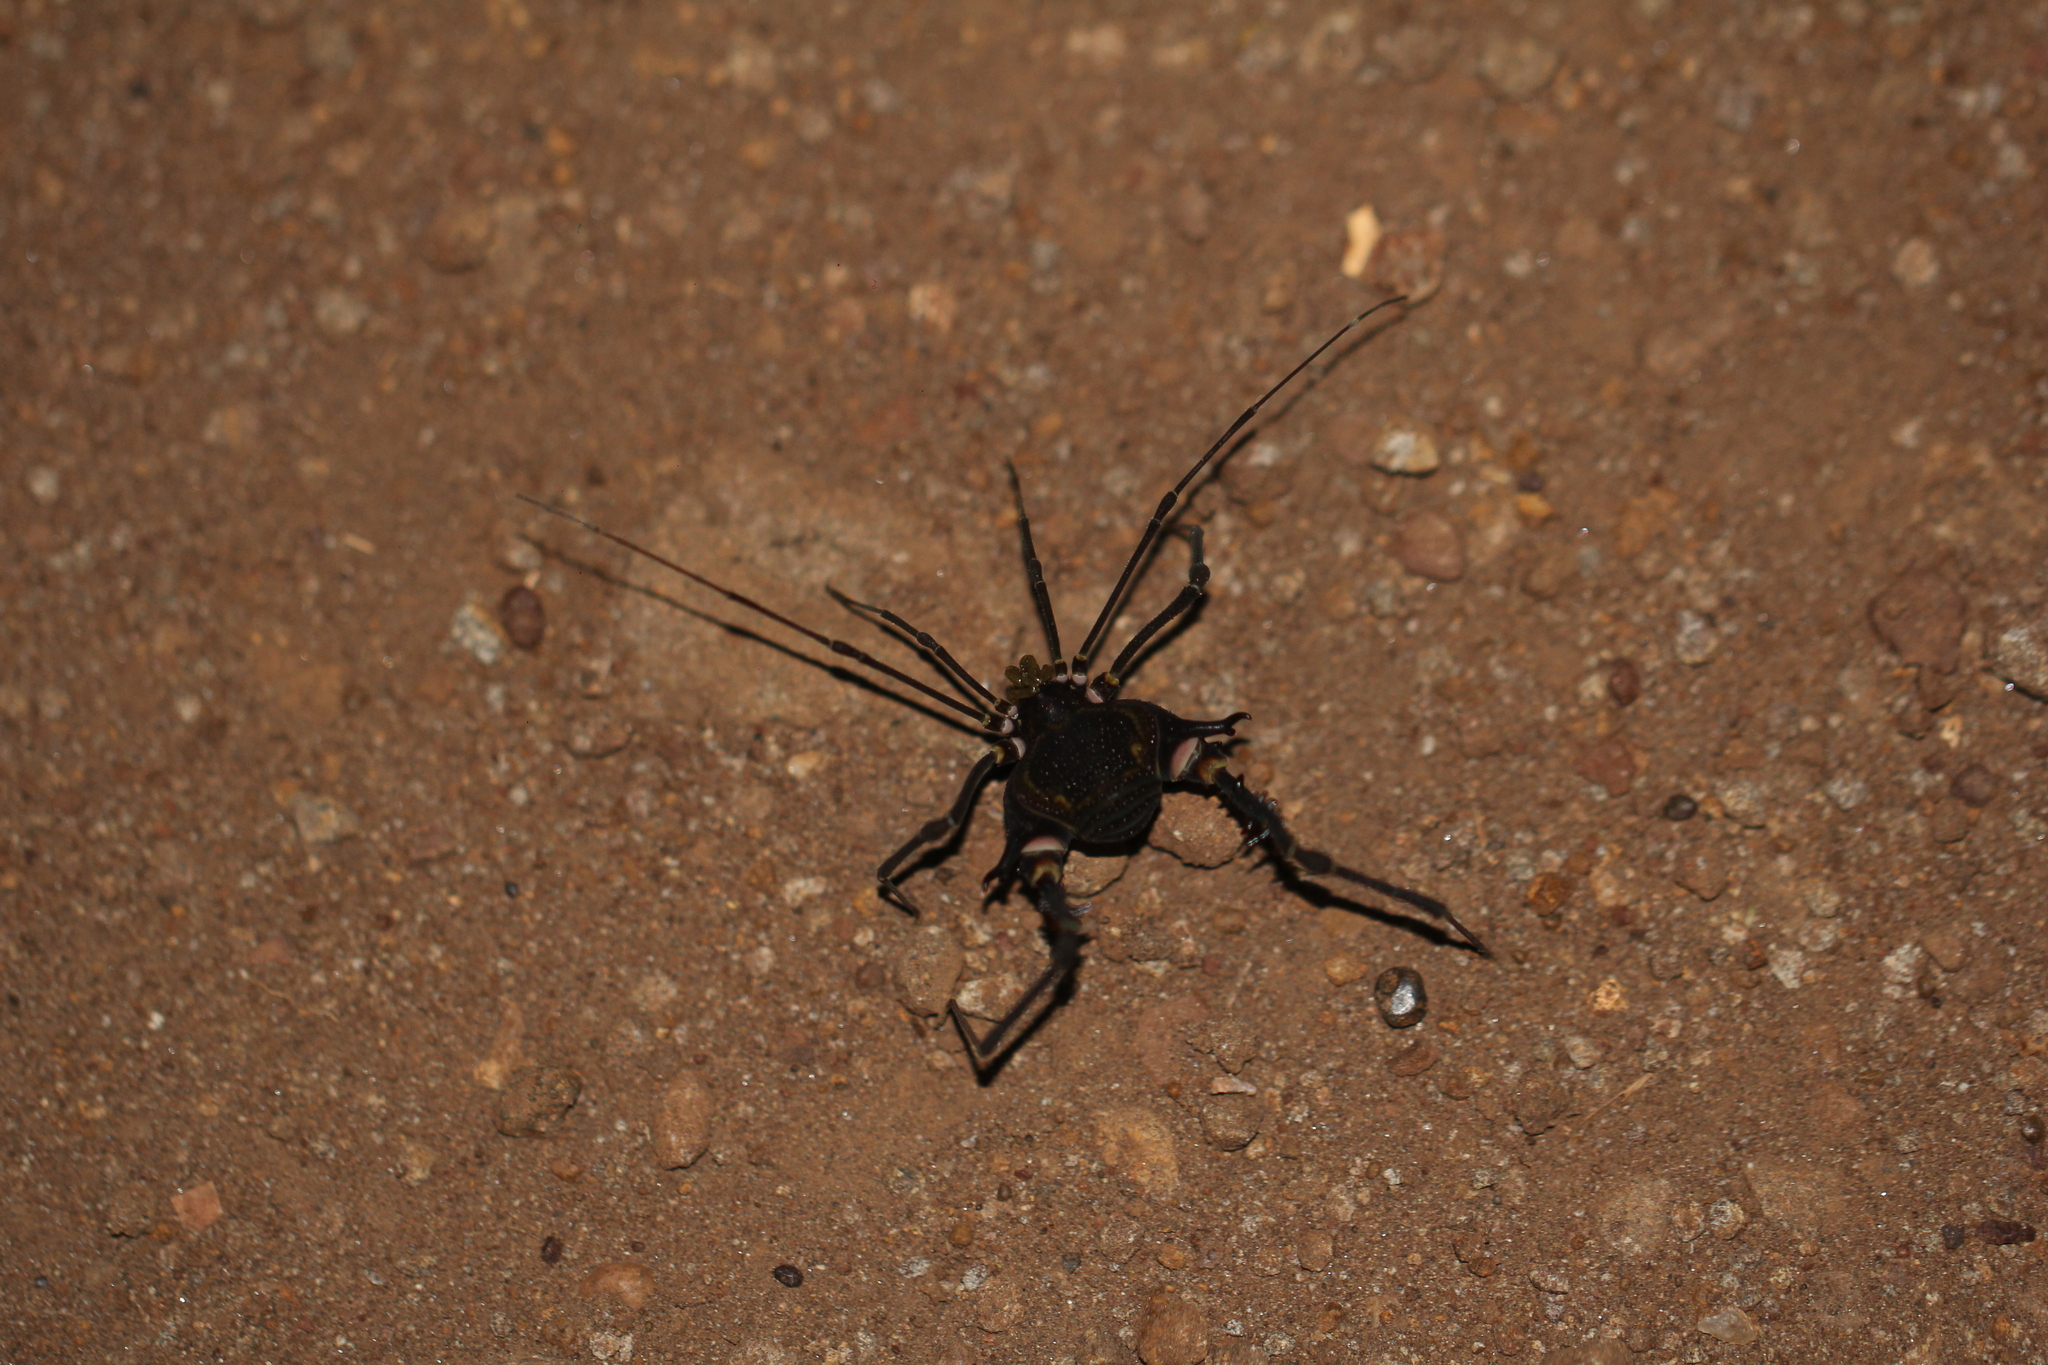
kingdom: Animalia
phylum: Arthropoda
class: Arachnida
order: Opiliones
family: Gonyleptidae
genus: Geraeocormobius
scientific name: Geraeocormobius sylvarum
